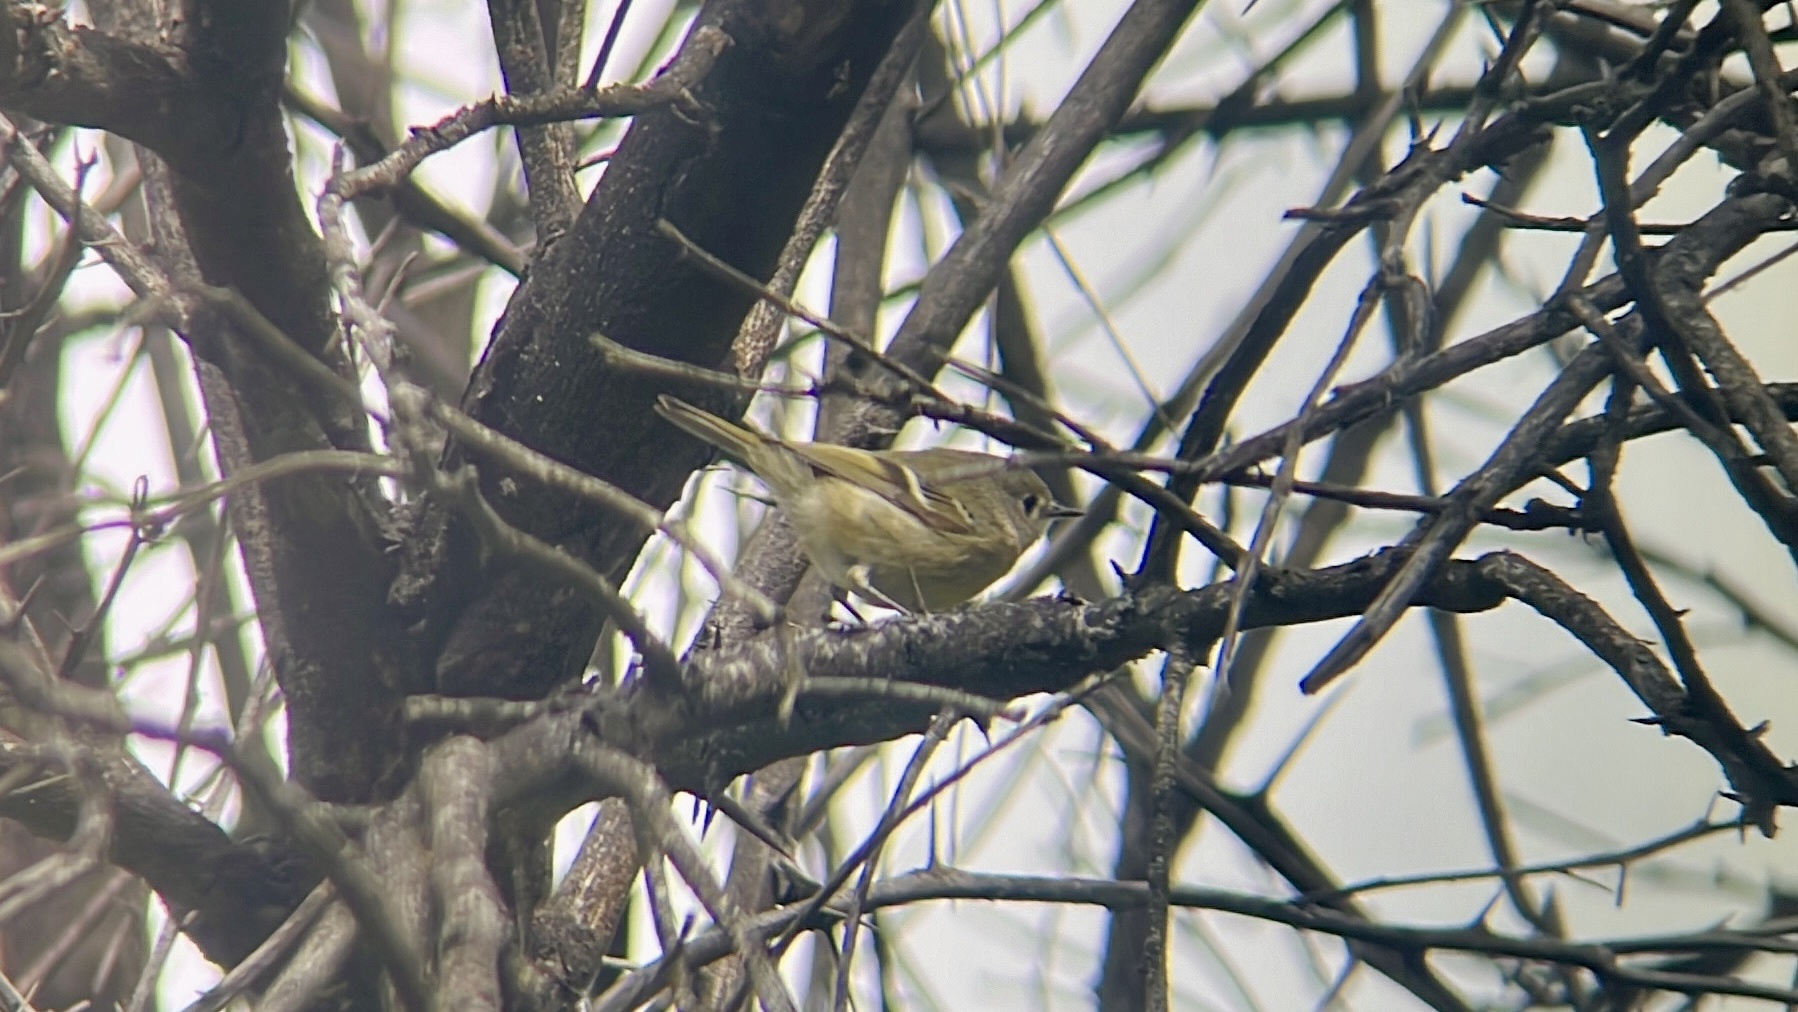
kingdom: Animalia
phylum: Chordata
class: Aves
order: Passeriformes
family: Regulidae
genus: Regulus
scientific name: Regulus calendula
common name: Ruby-crowned kinglet
